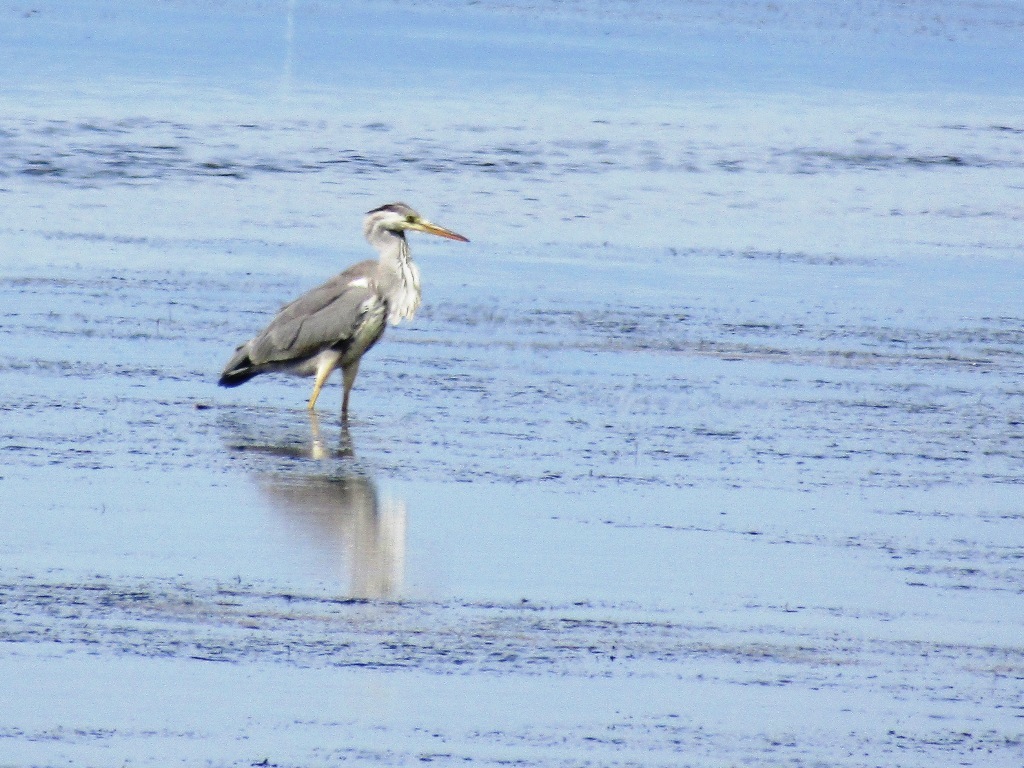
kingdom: Animalia
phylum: Chordata
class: Aves
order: Pelecaniformes
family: Ardeidae
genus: Ardea
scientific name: Ardea cinerea
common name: Grey heron
